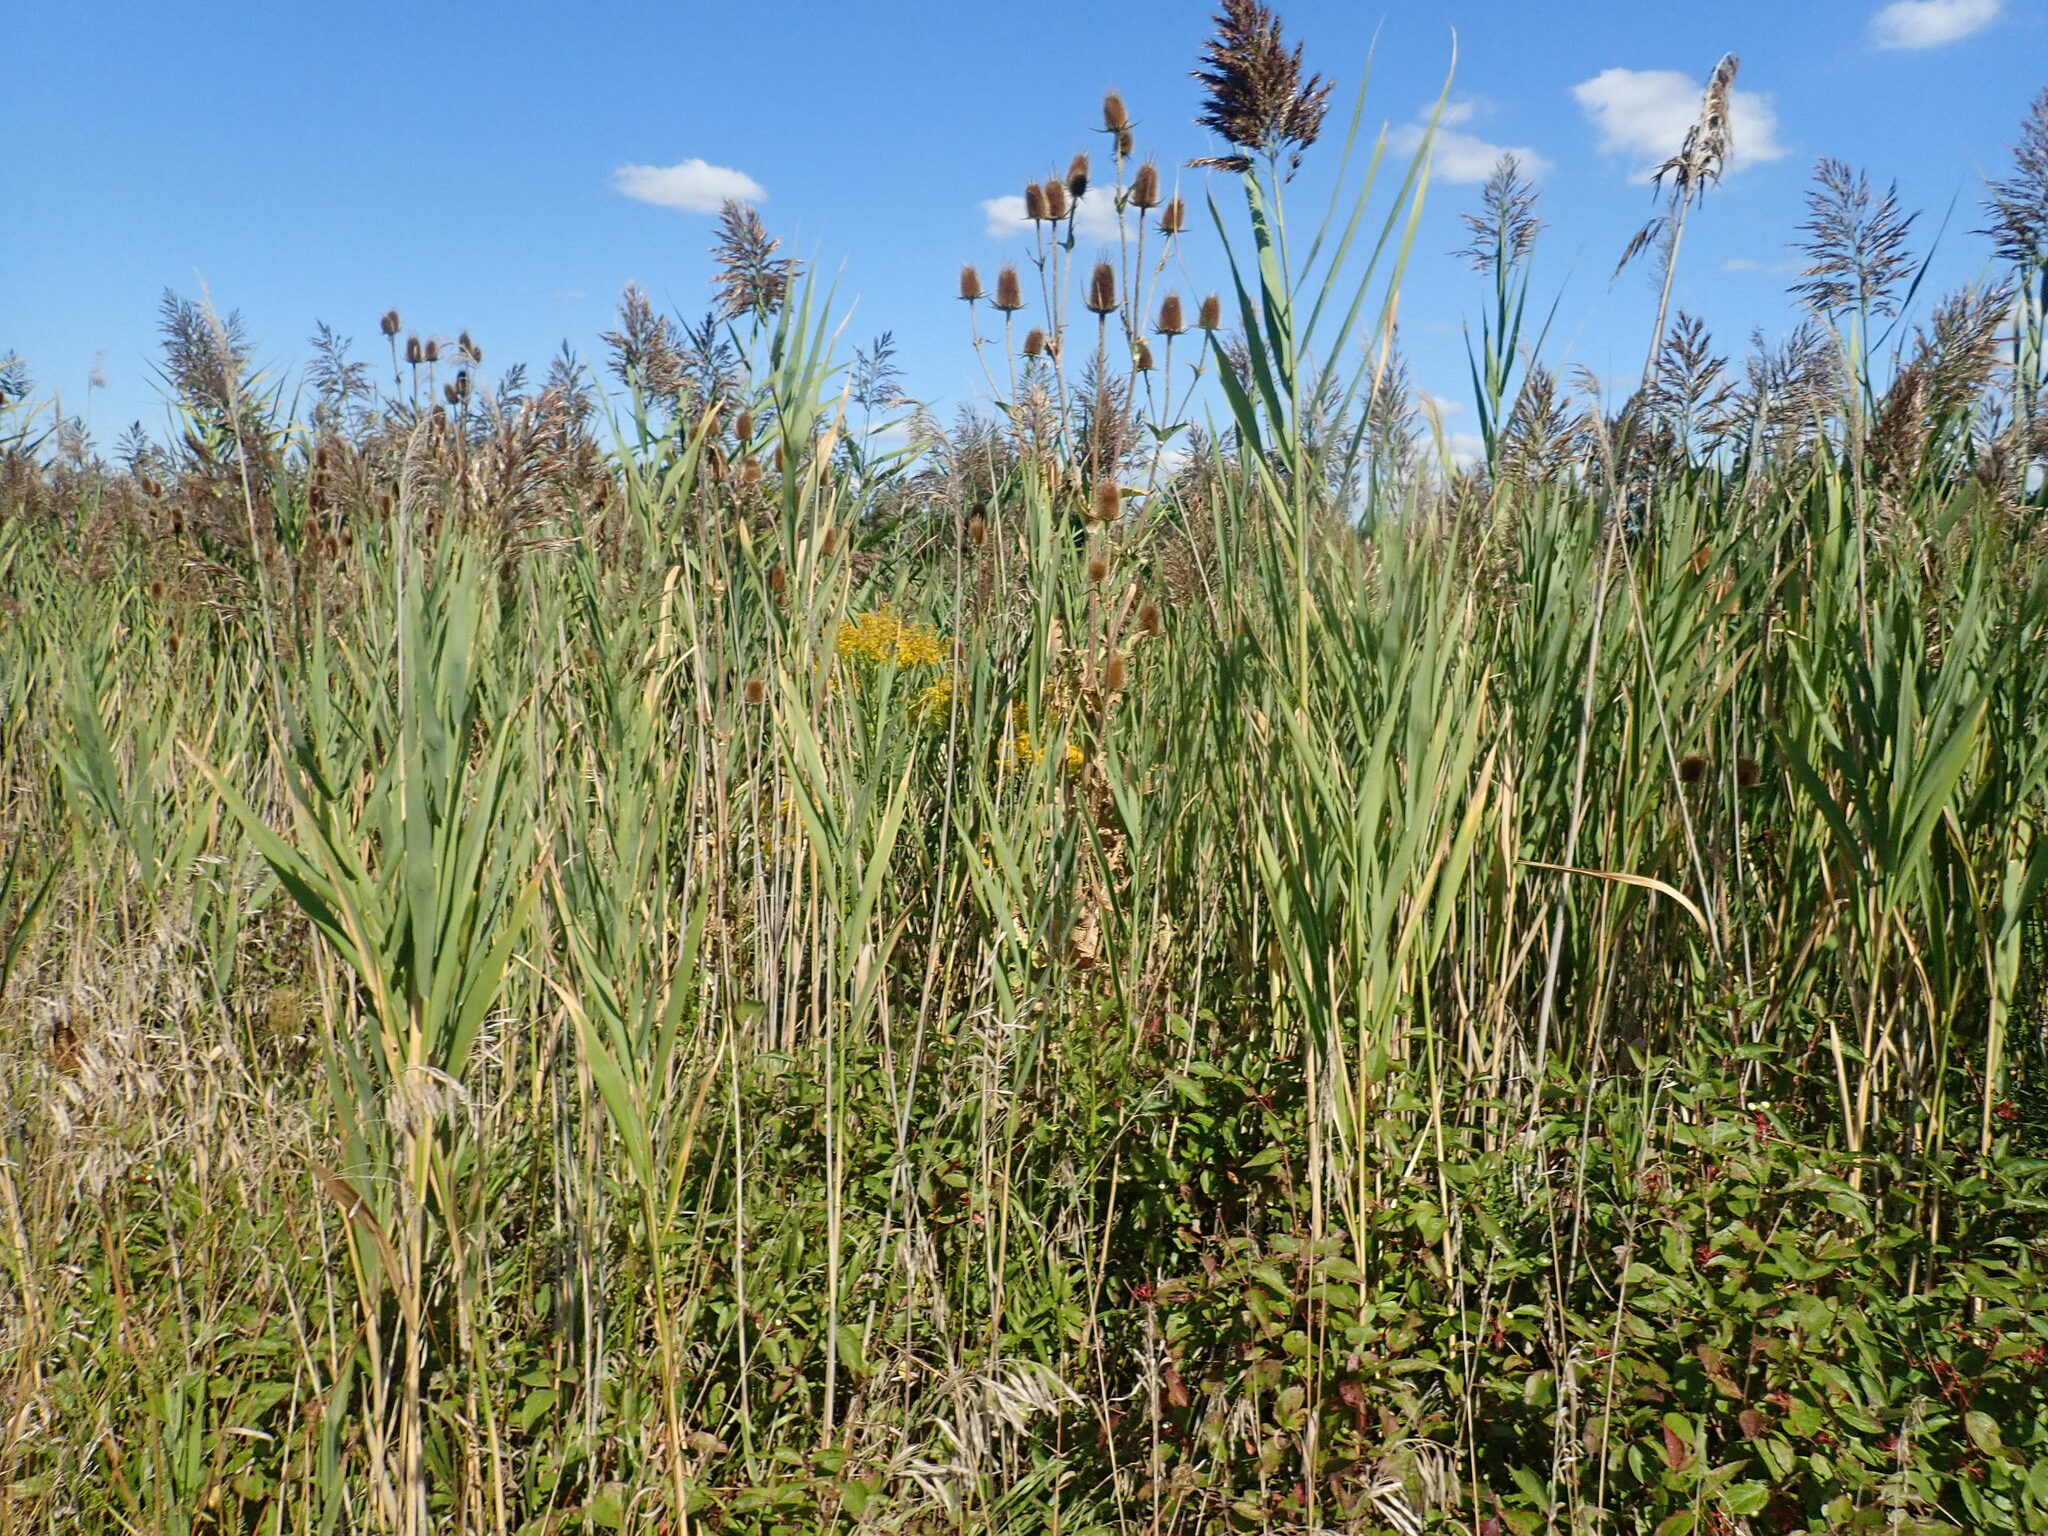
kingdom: Plantae
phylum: Tracheophyta
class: Liliopsida
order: Poales
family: Poaceae
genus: Phragmites
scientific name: Phragmites australis
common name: Common reed
